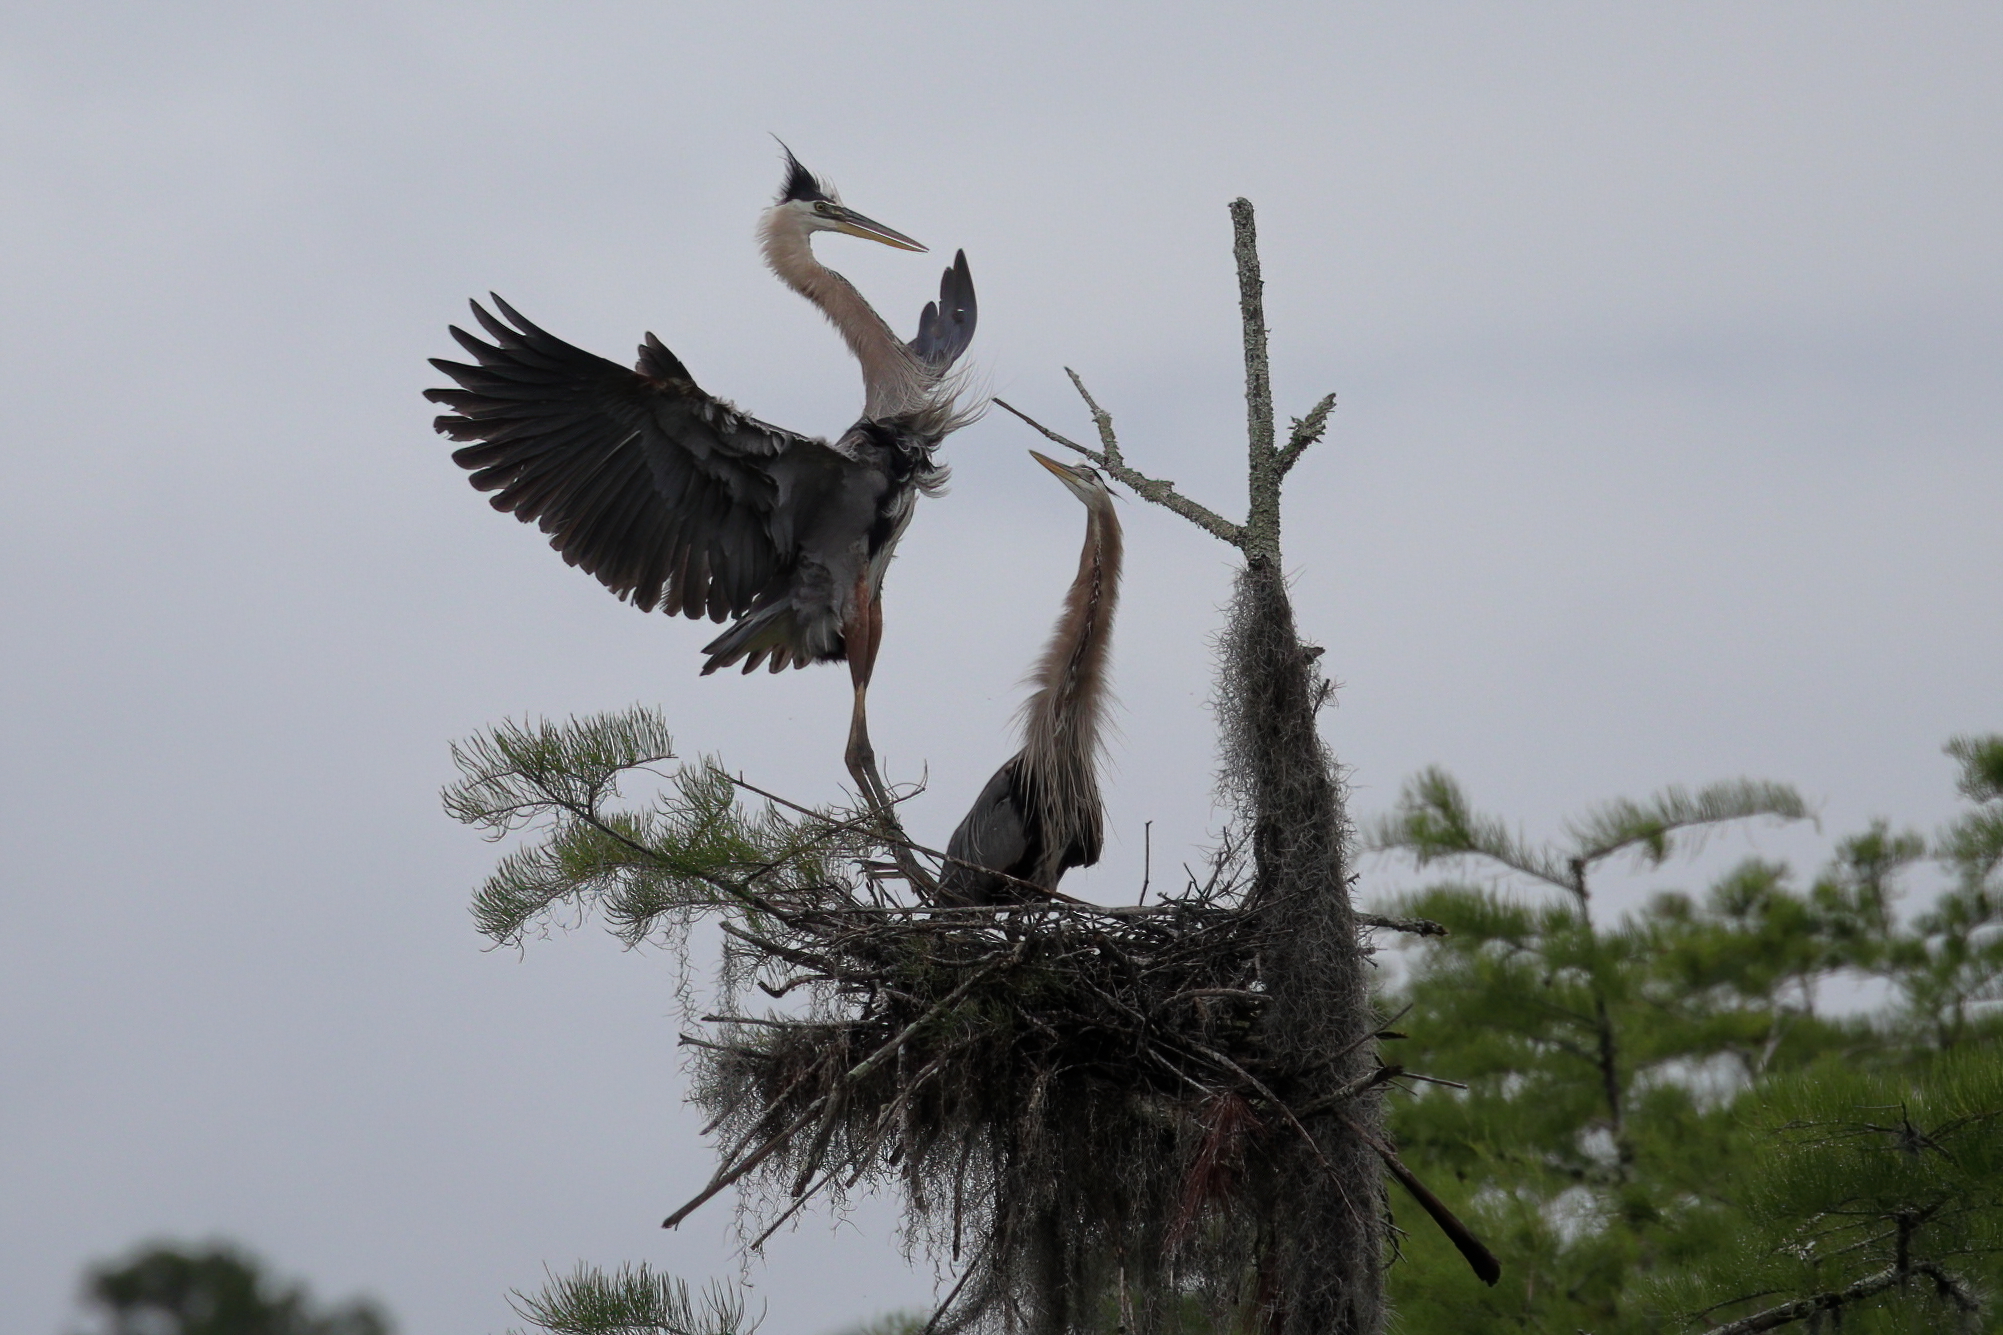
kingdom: Animalia
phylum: Chordata
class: Aves
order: Pelecaniformes
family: Ardeidae
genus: Ardea
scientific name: Ardea herodias
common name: Great blue heron
